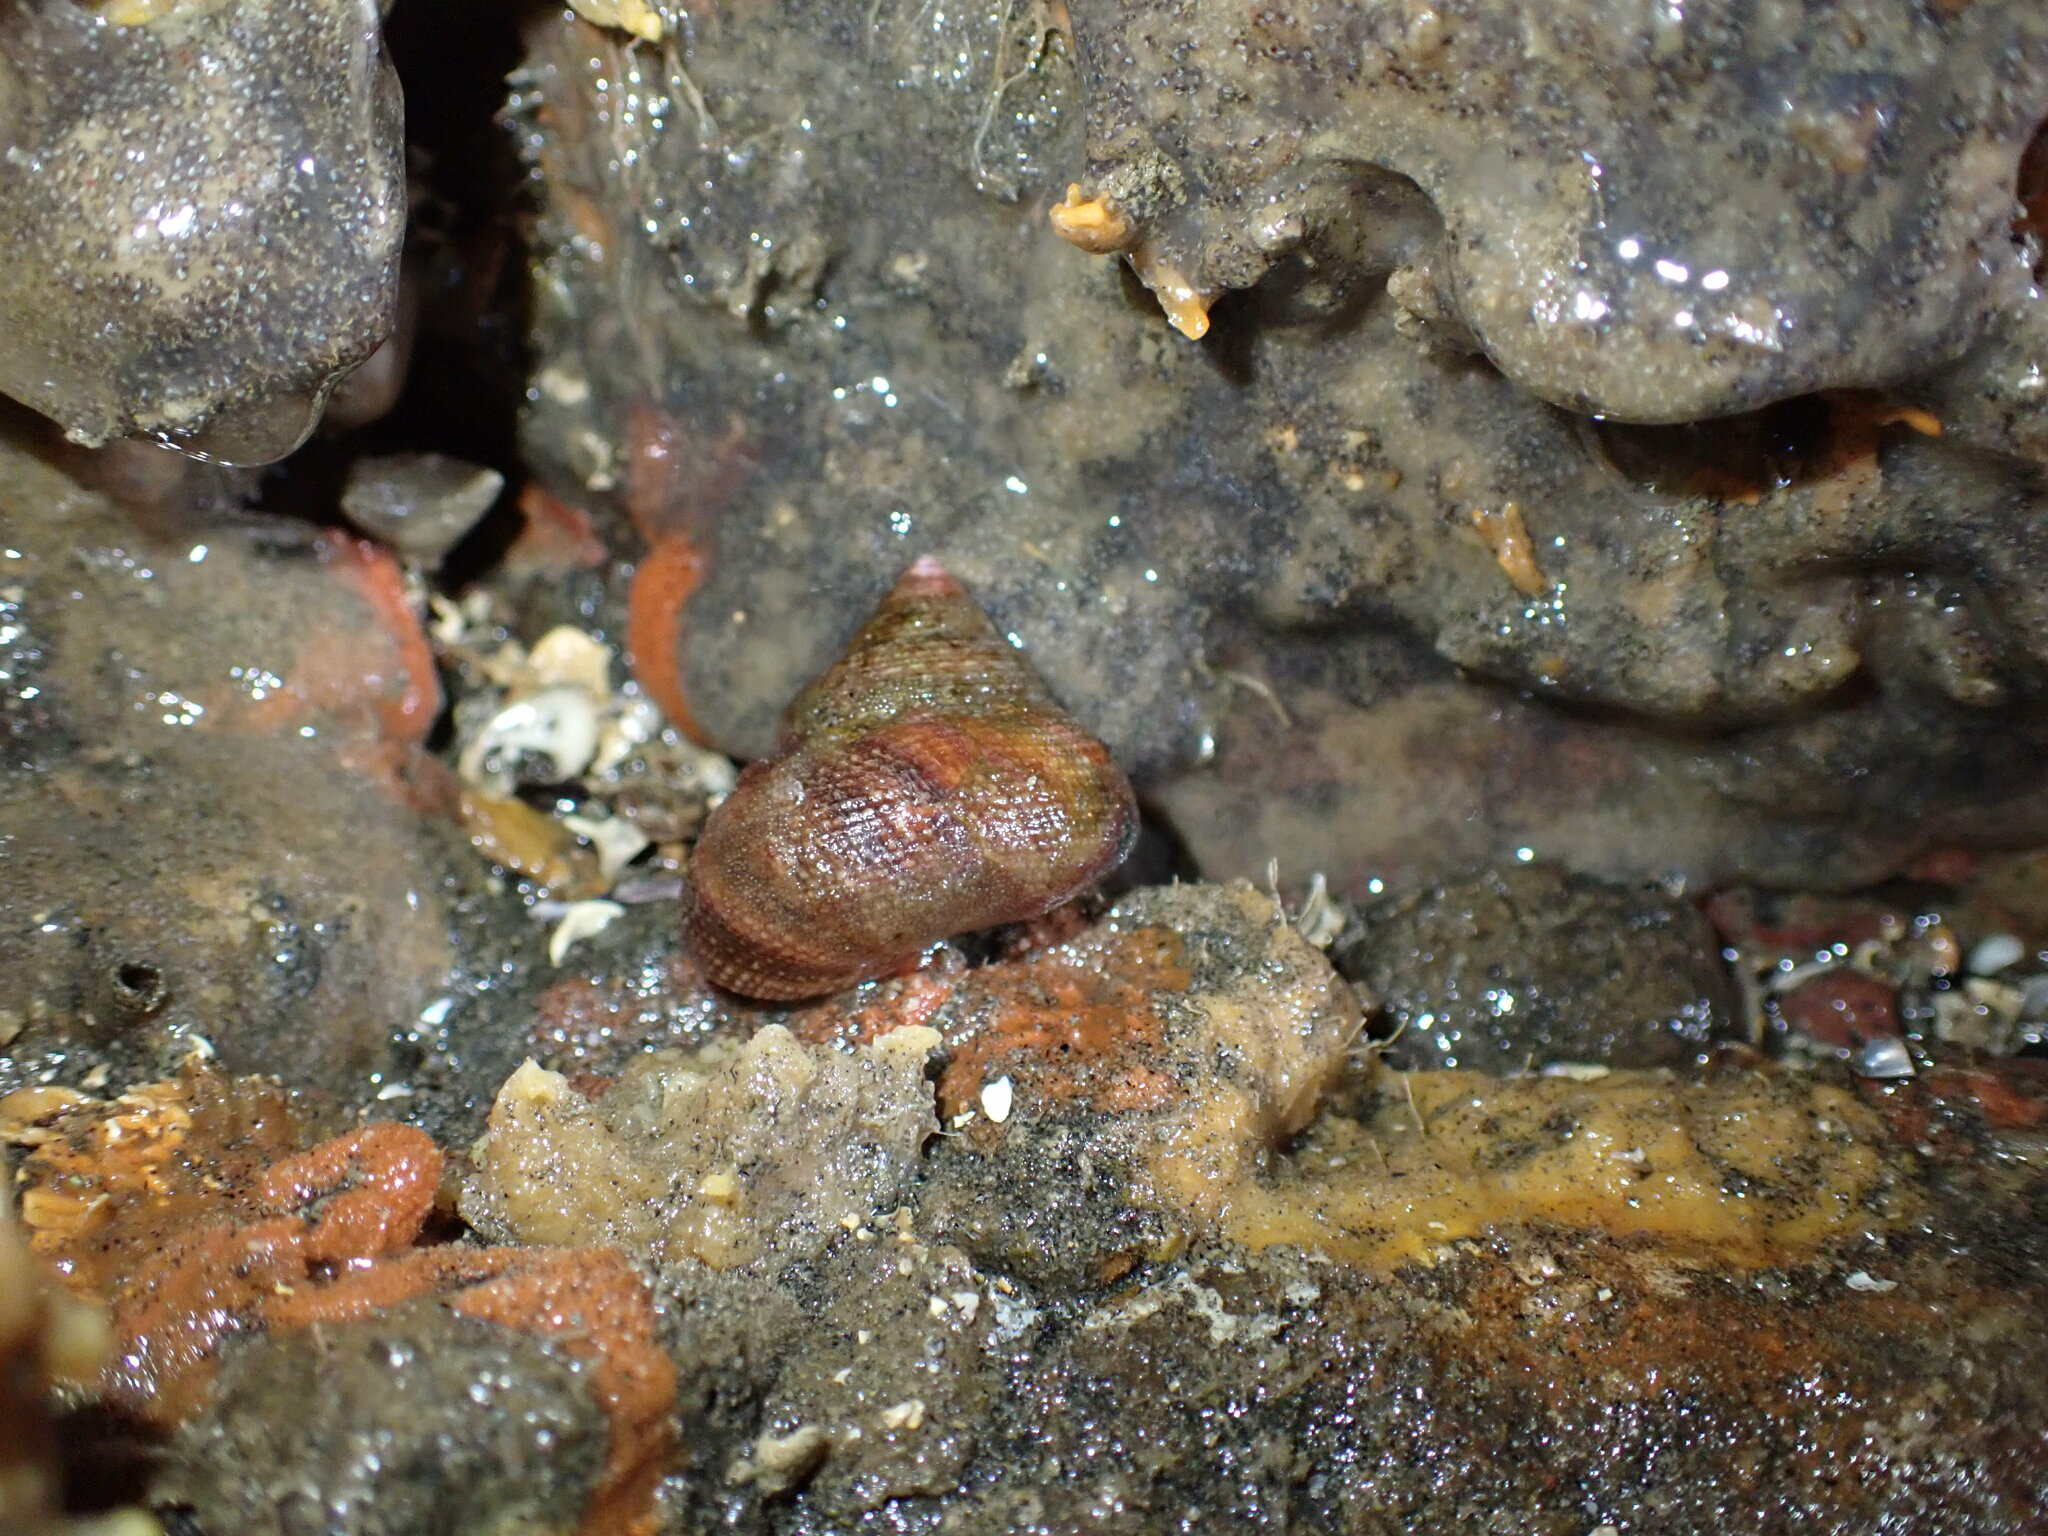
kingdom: Animalia
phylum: Mollusca
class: Gastropoda
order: Trochida
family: Calliostomatidae
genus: Maurea
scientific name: Maurea punctulata
